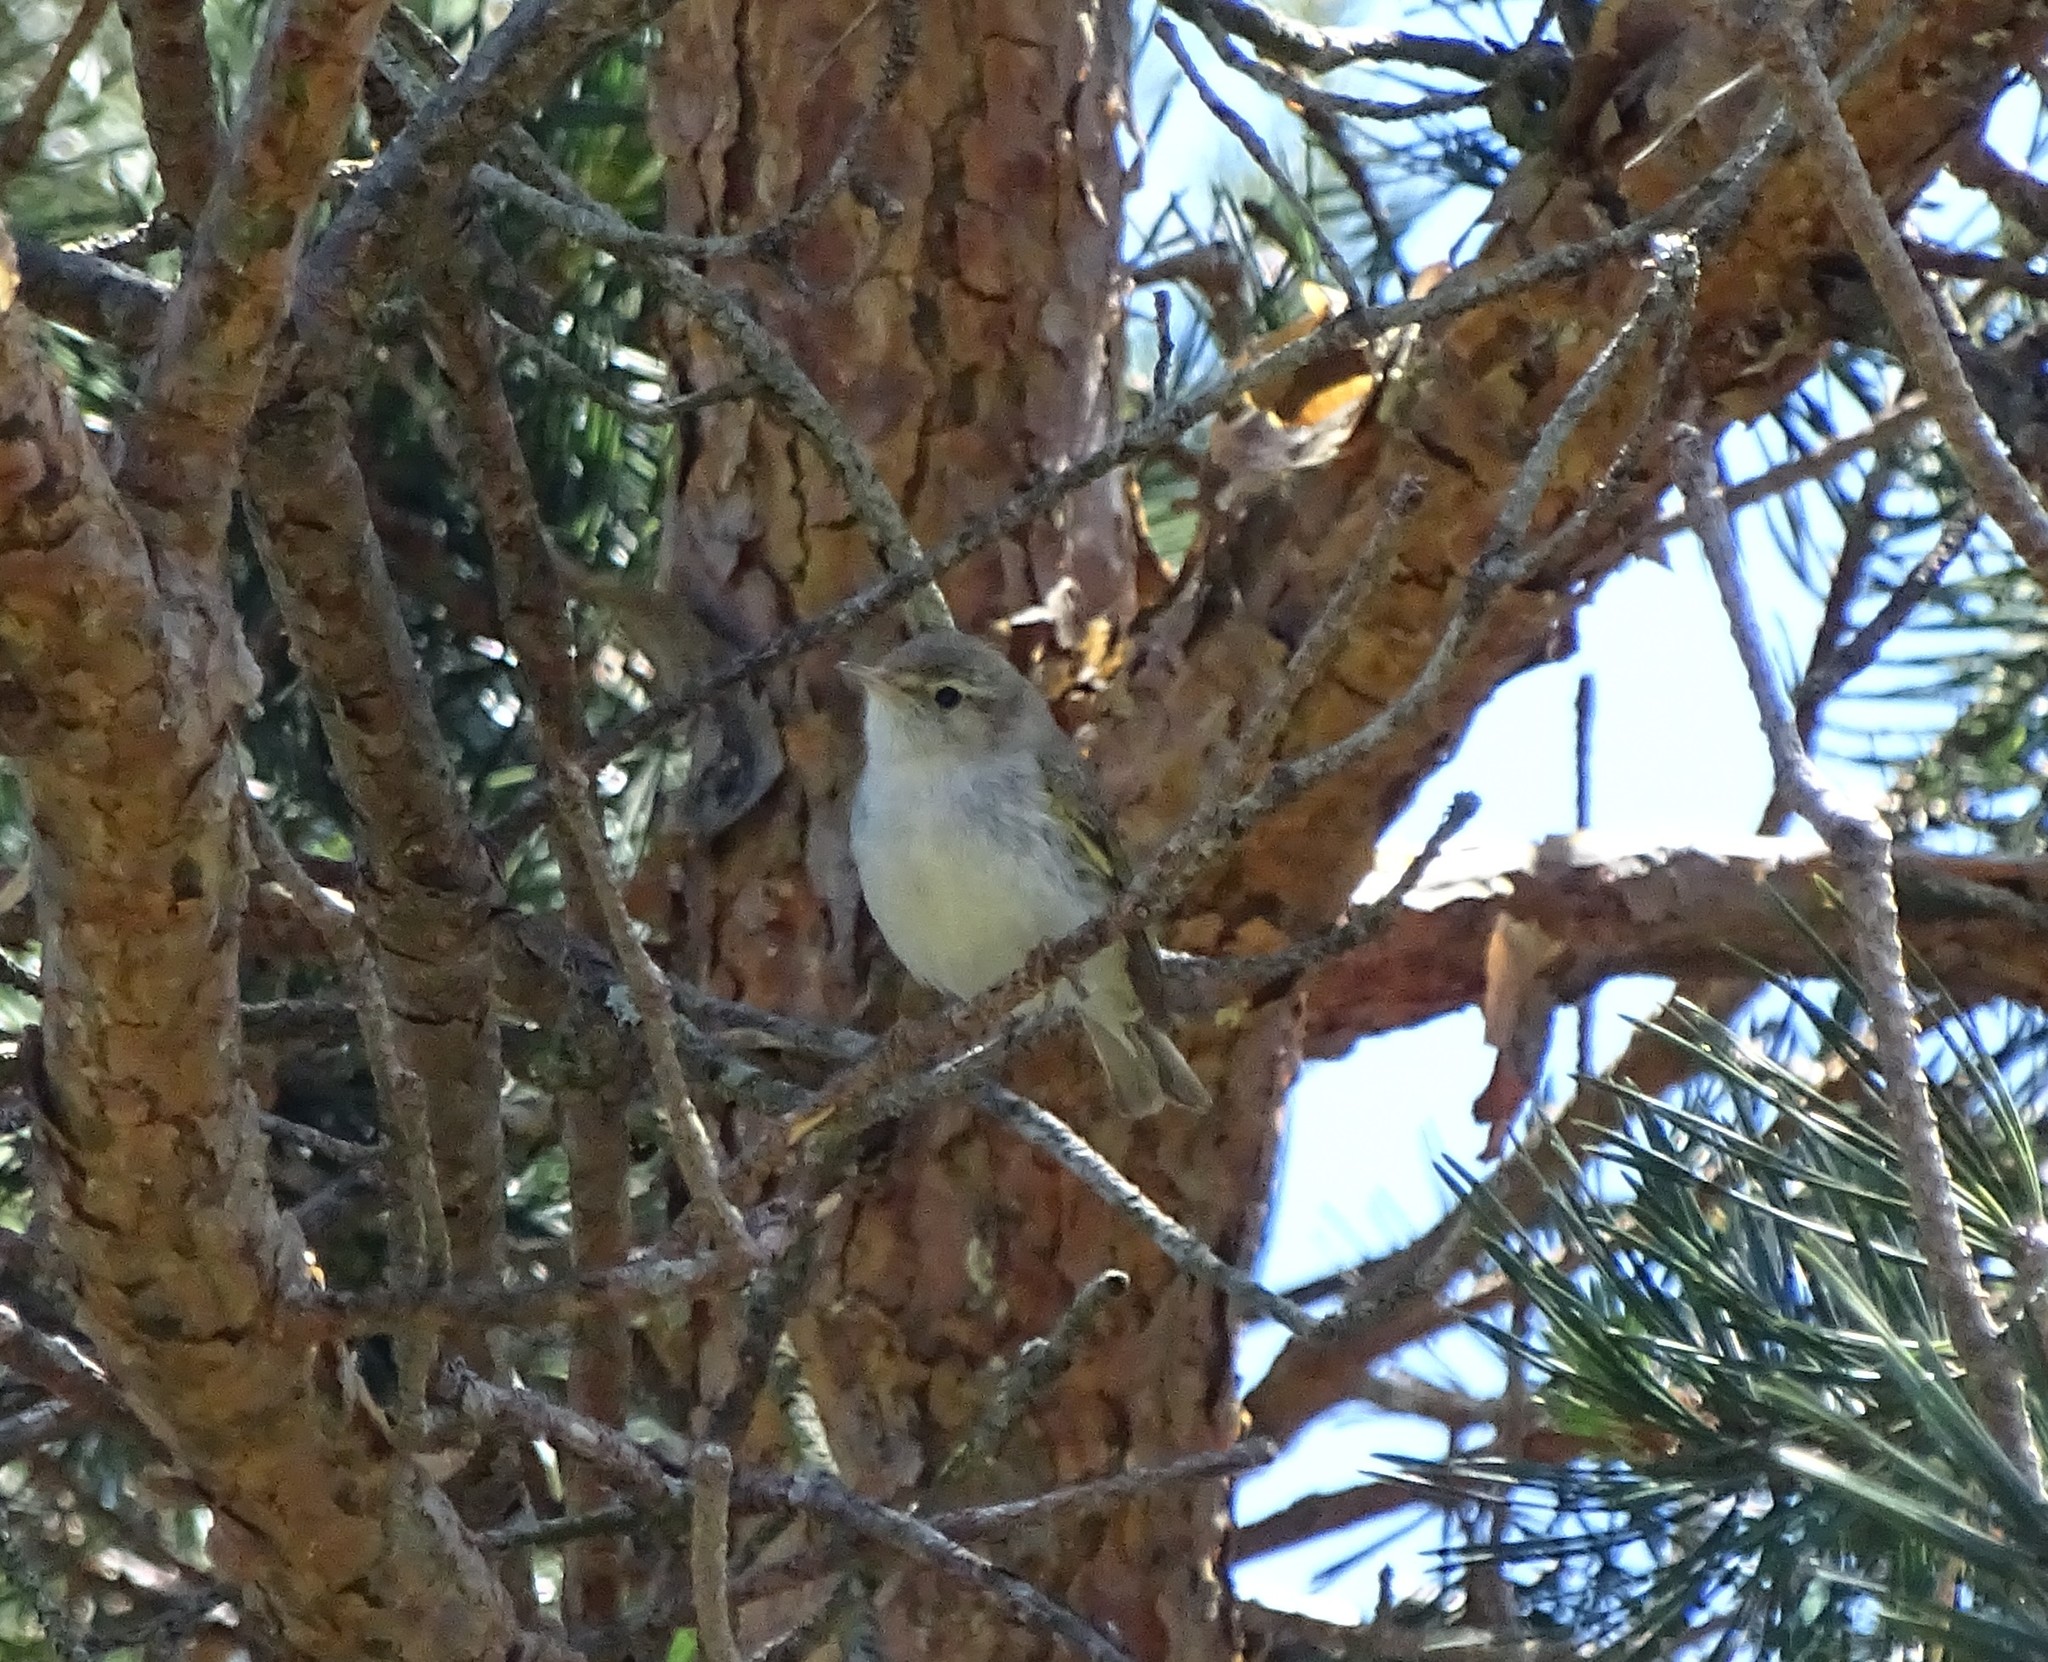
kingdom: Animalia
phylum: Chordata
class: Aves
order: Passeriformes
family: Phylloscopidae
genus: Phylloscopus
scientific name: Phylloscopus bonelli
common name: Western bonelli's warbler
